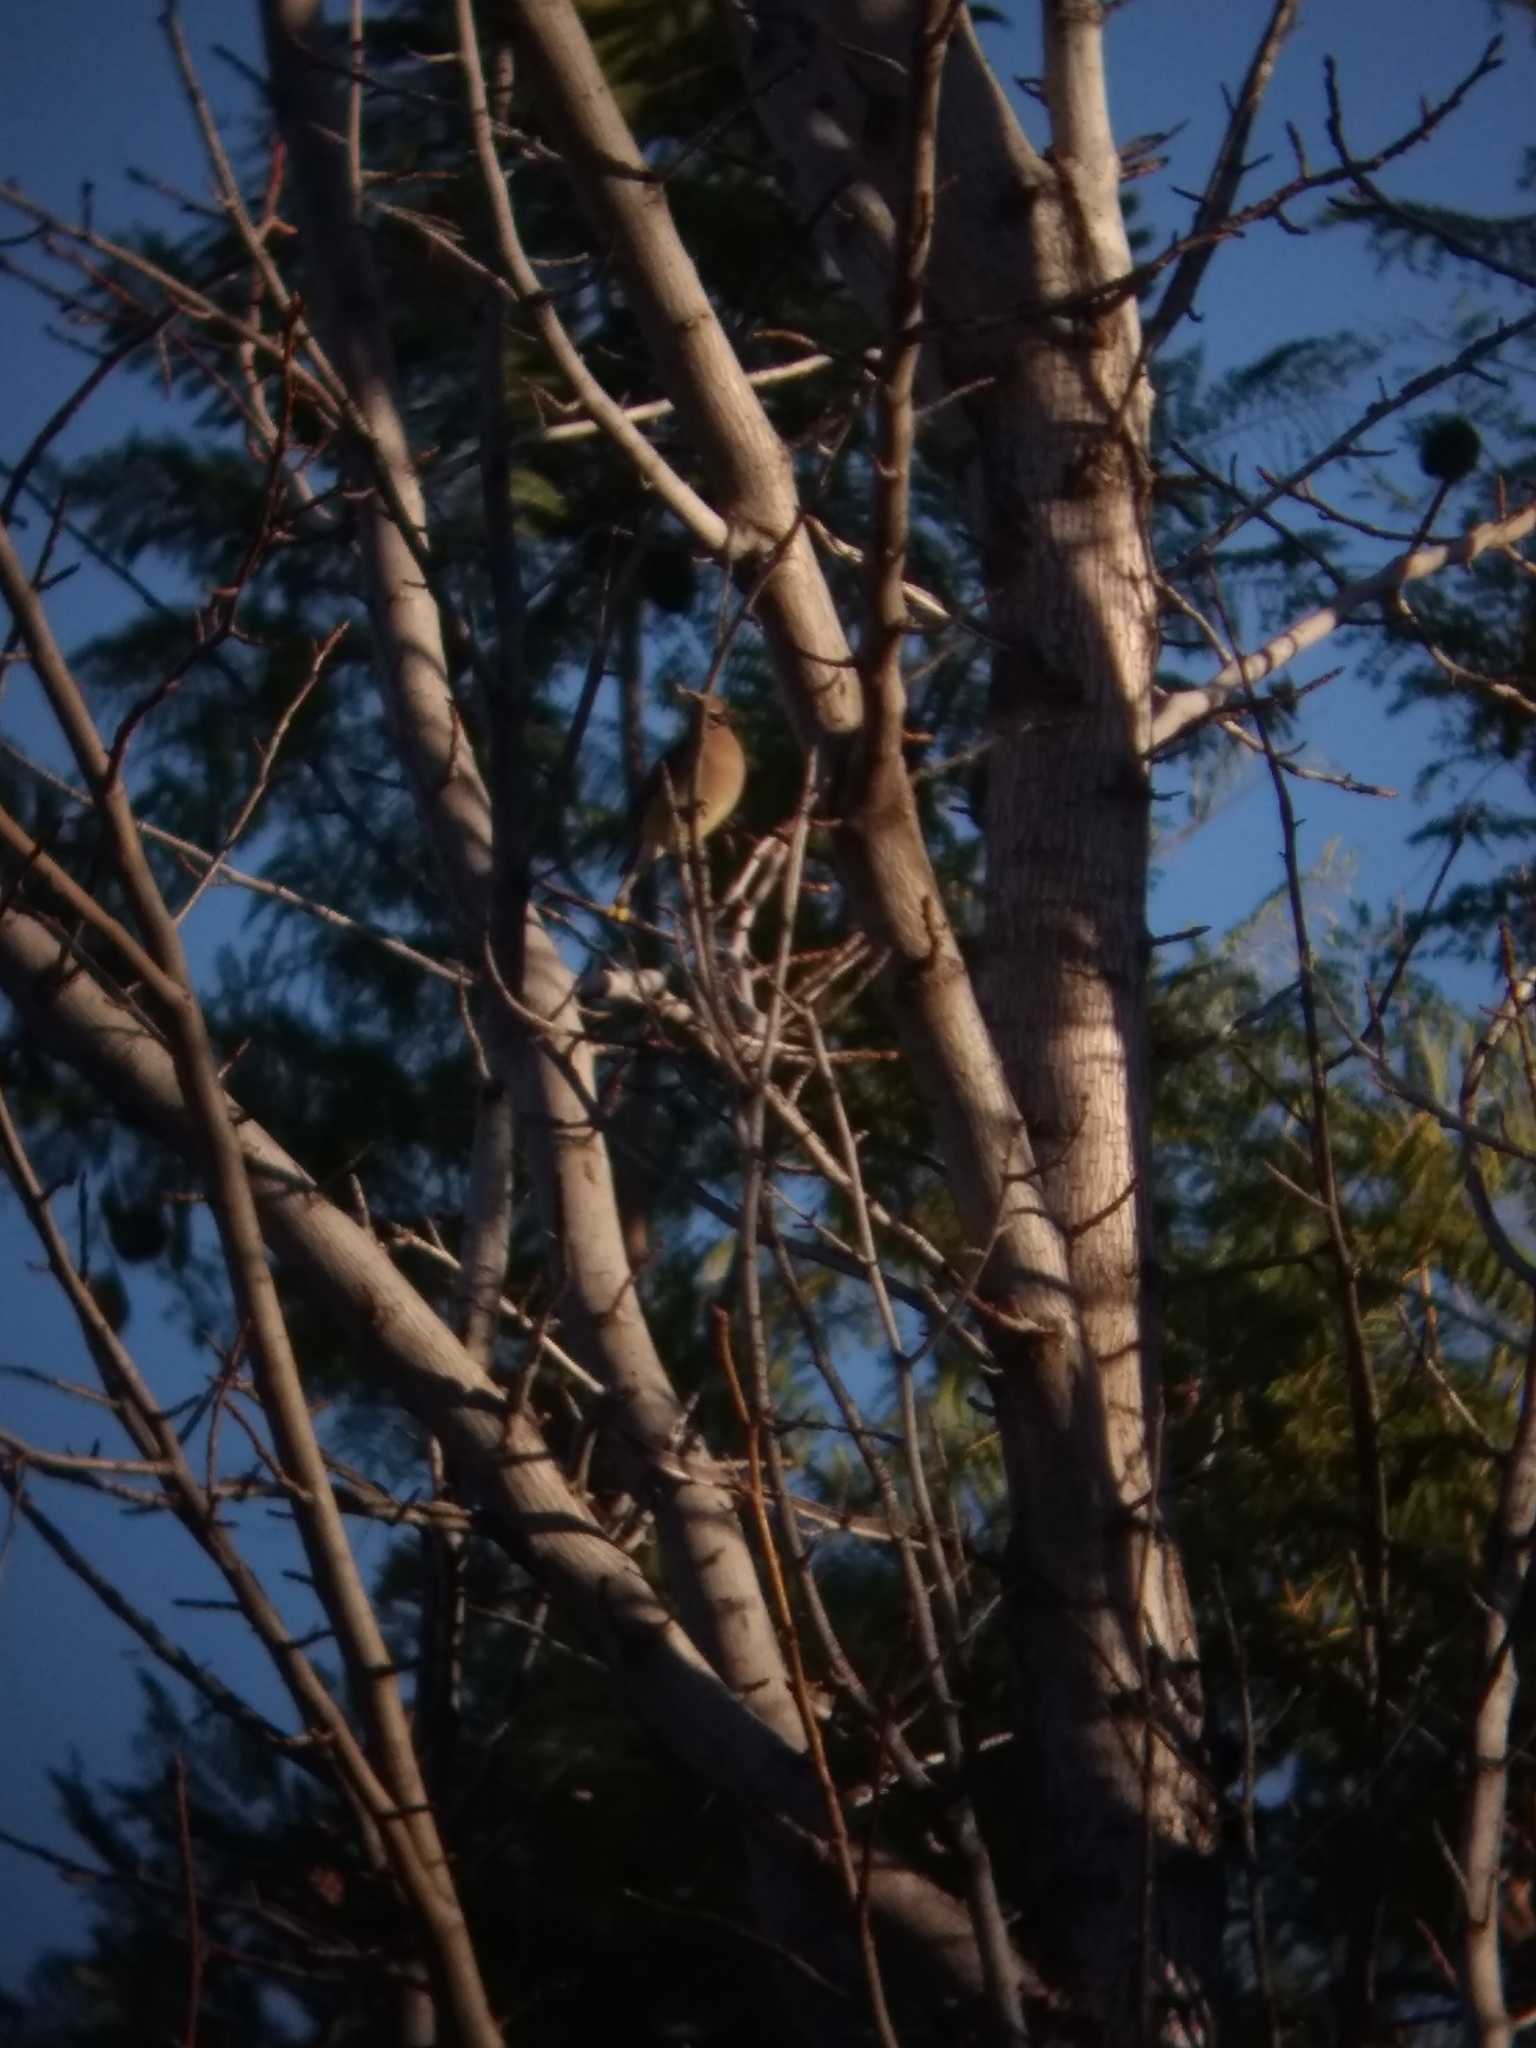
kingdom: Animalia
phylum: Chordata
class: Aves
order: Passeriformes
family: Bombycillidae
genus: Bombycilla
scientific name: Bombycilla cedrorum
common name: Cedar waxwing
